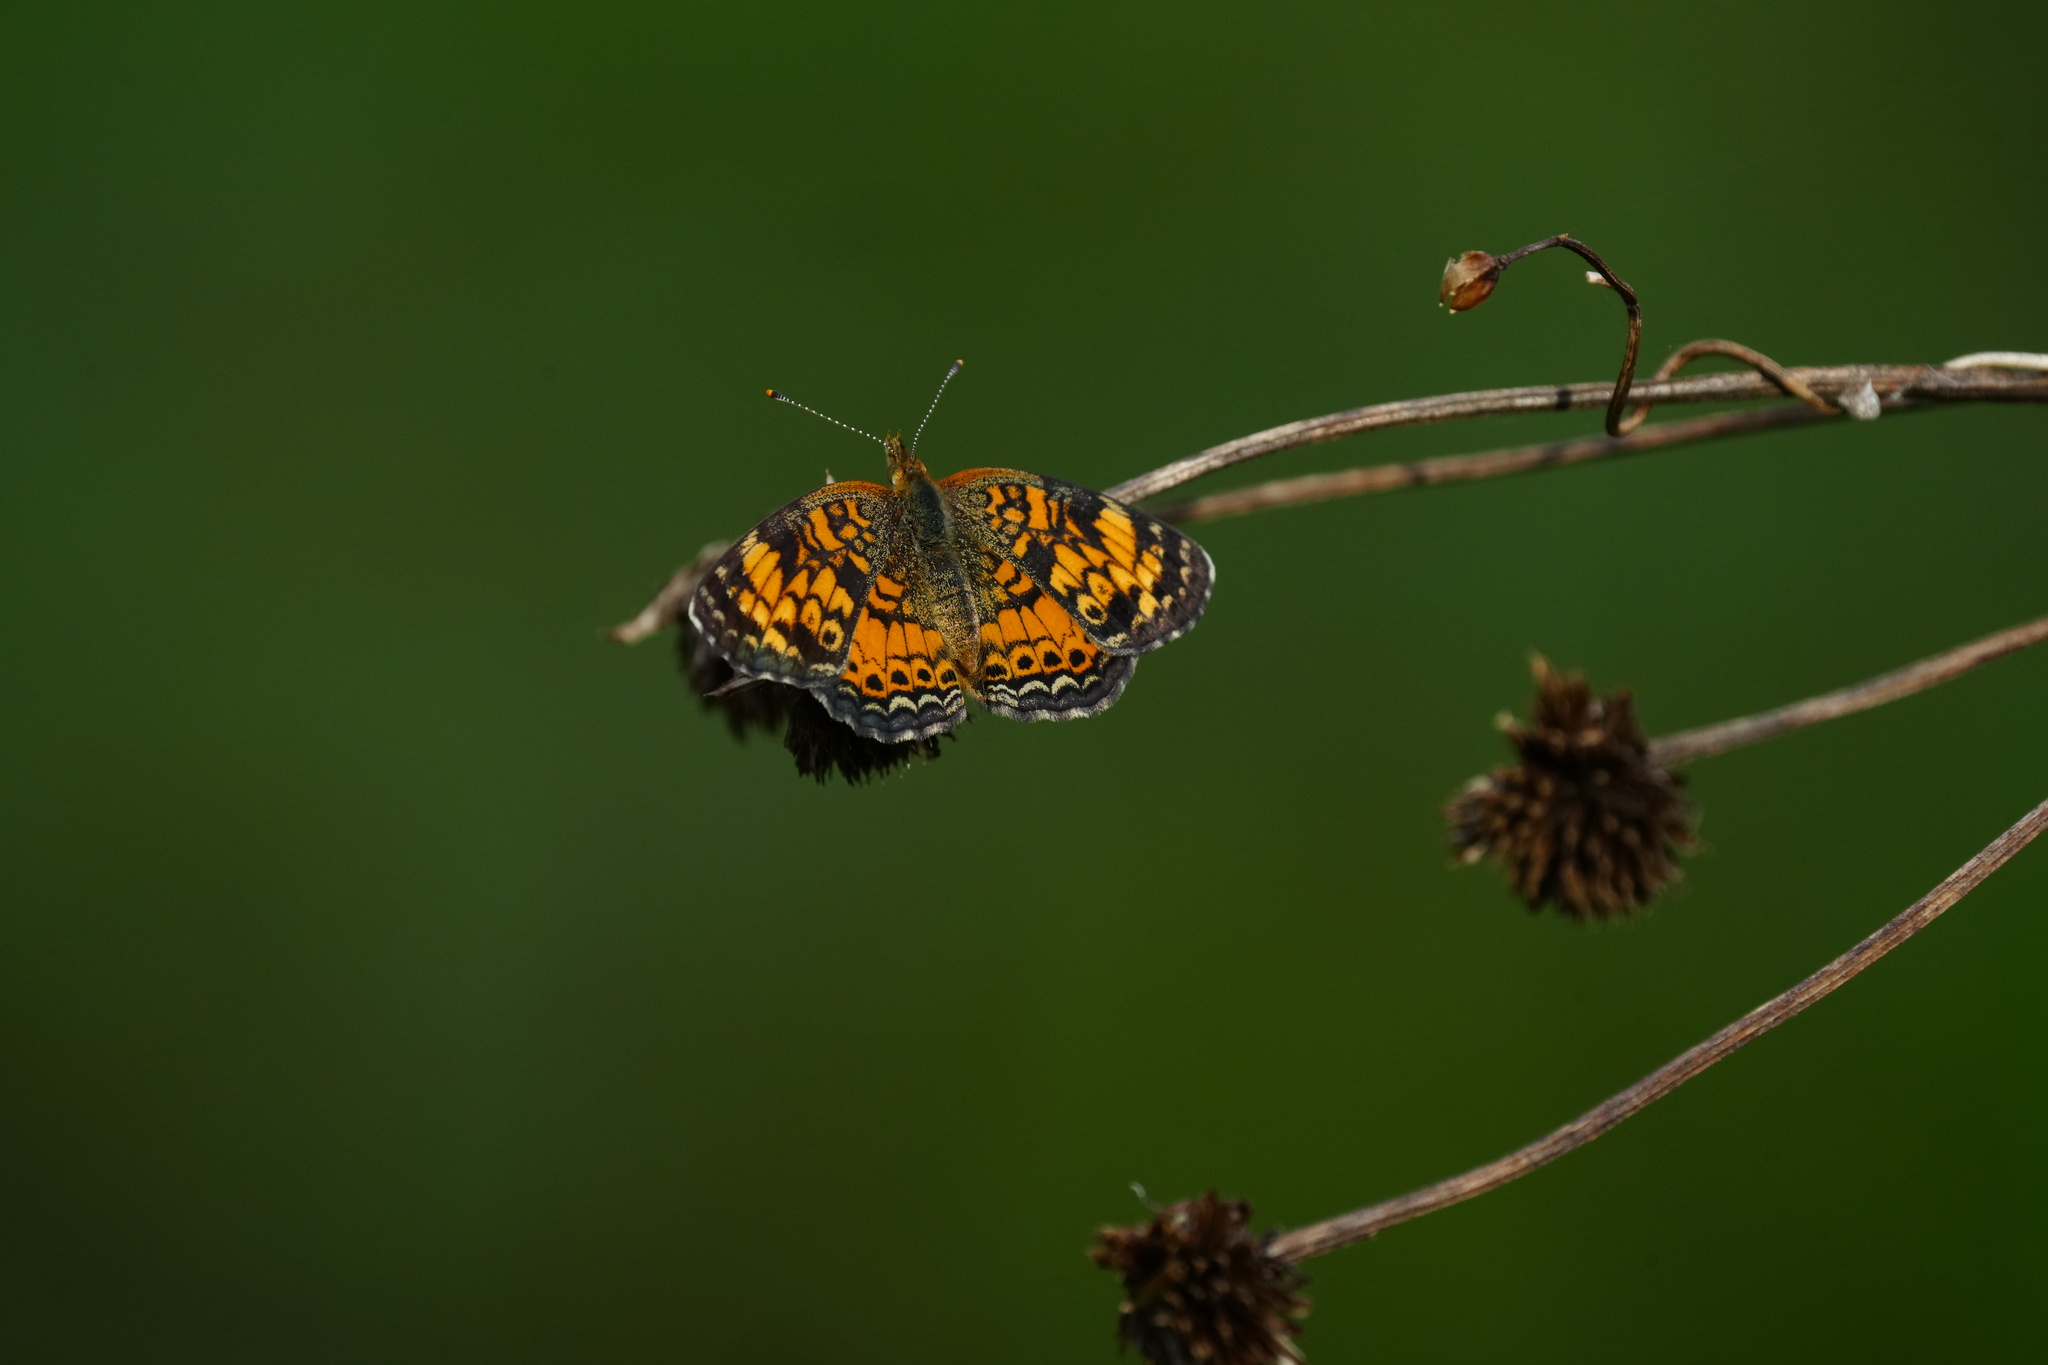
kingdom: Animalia
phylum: Arthropoda
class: Insecta
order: Lepidoptera
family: Nymphalidae
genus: Phyciodes
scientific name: Phyciodes tharos
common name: Pearl crescent
